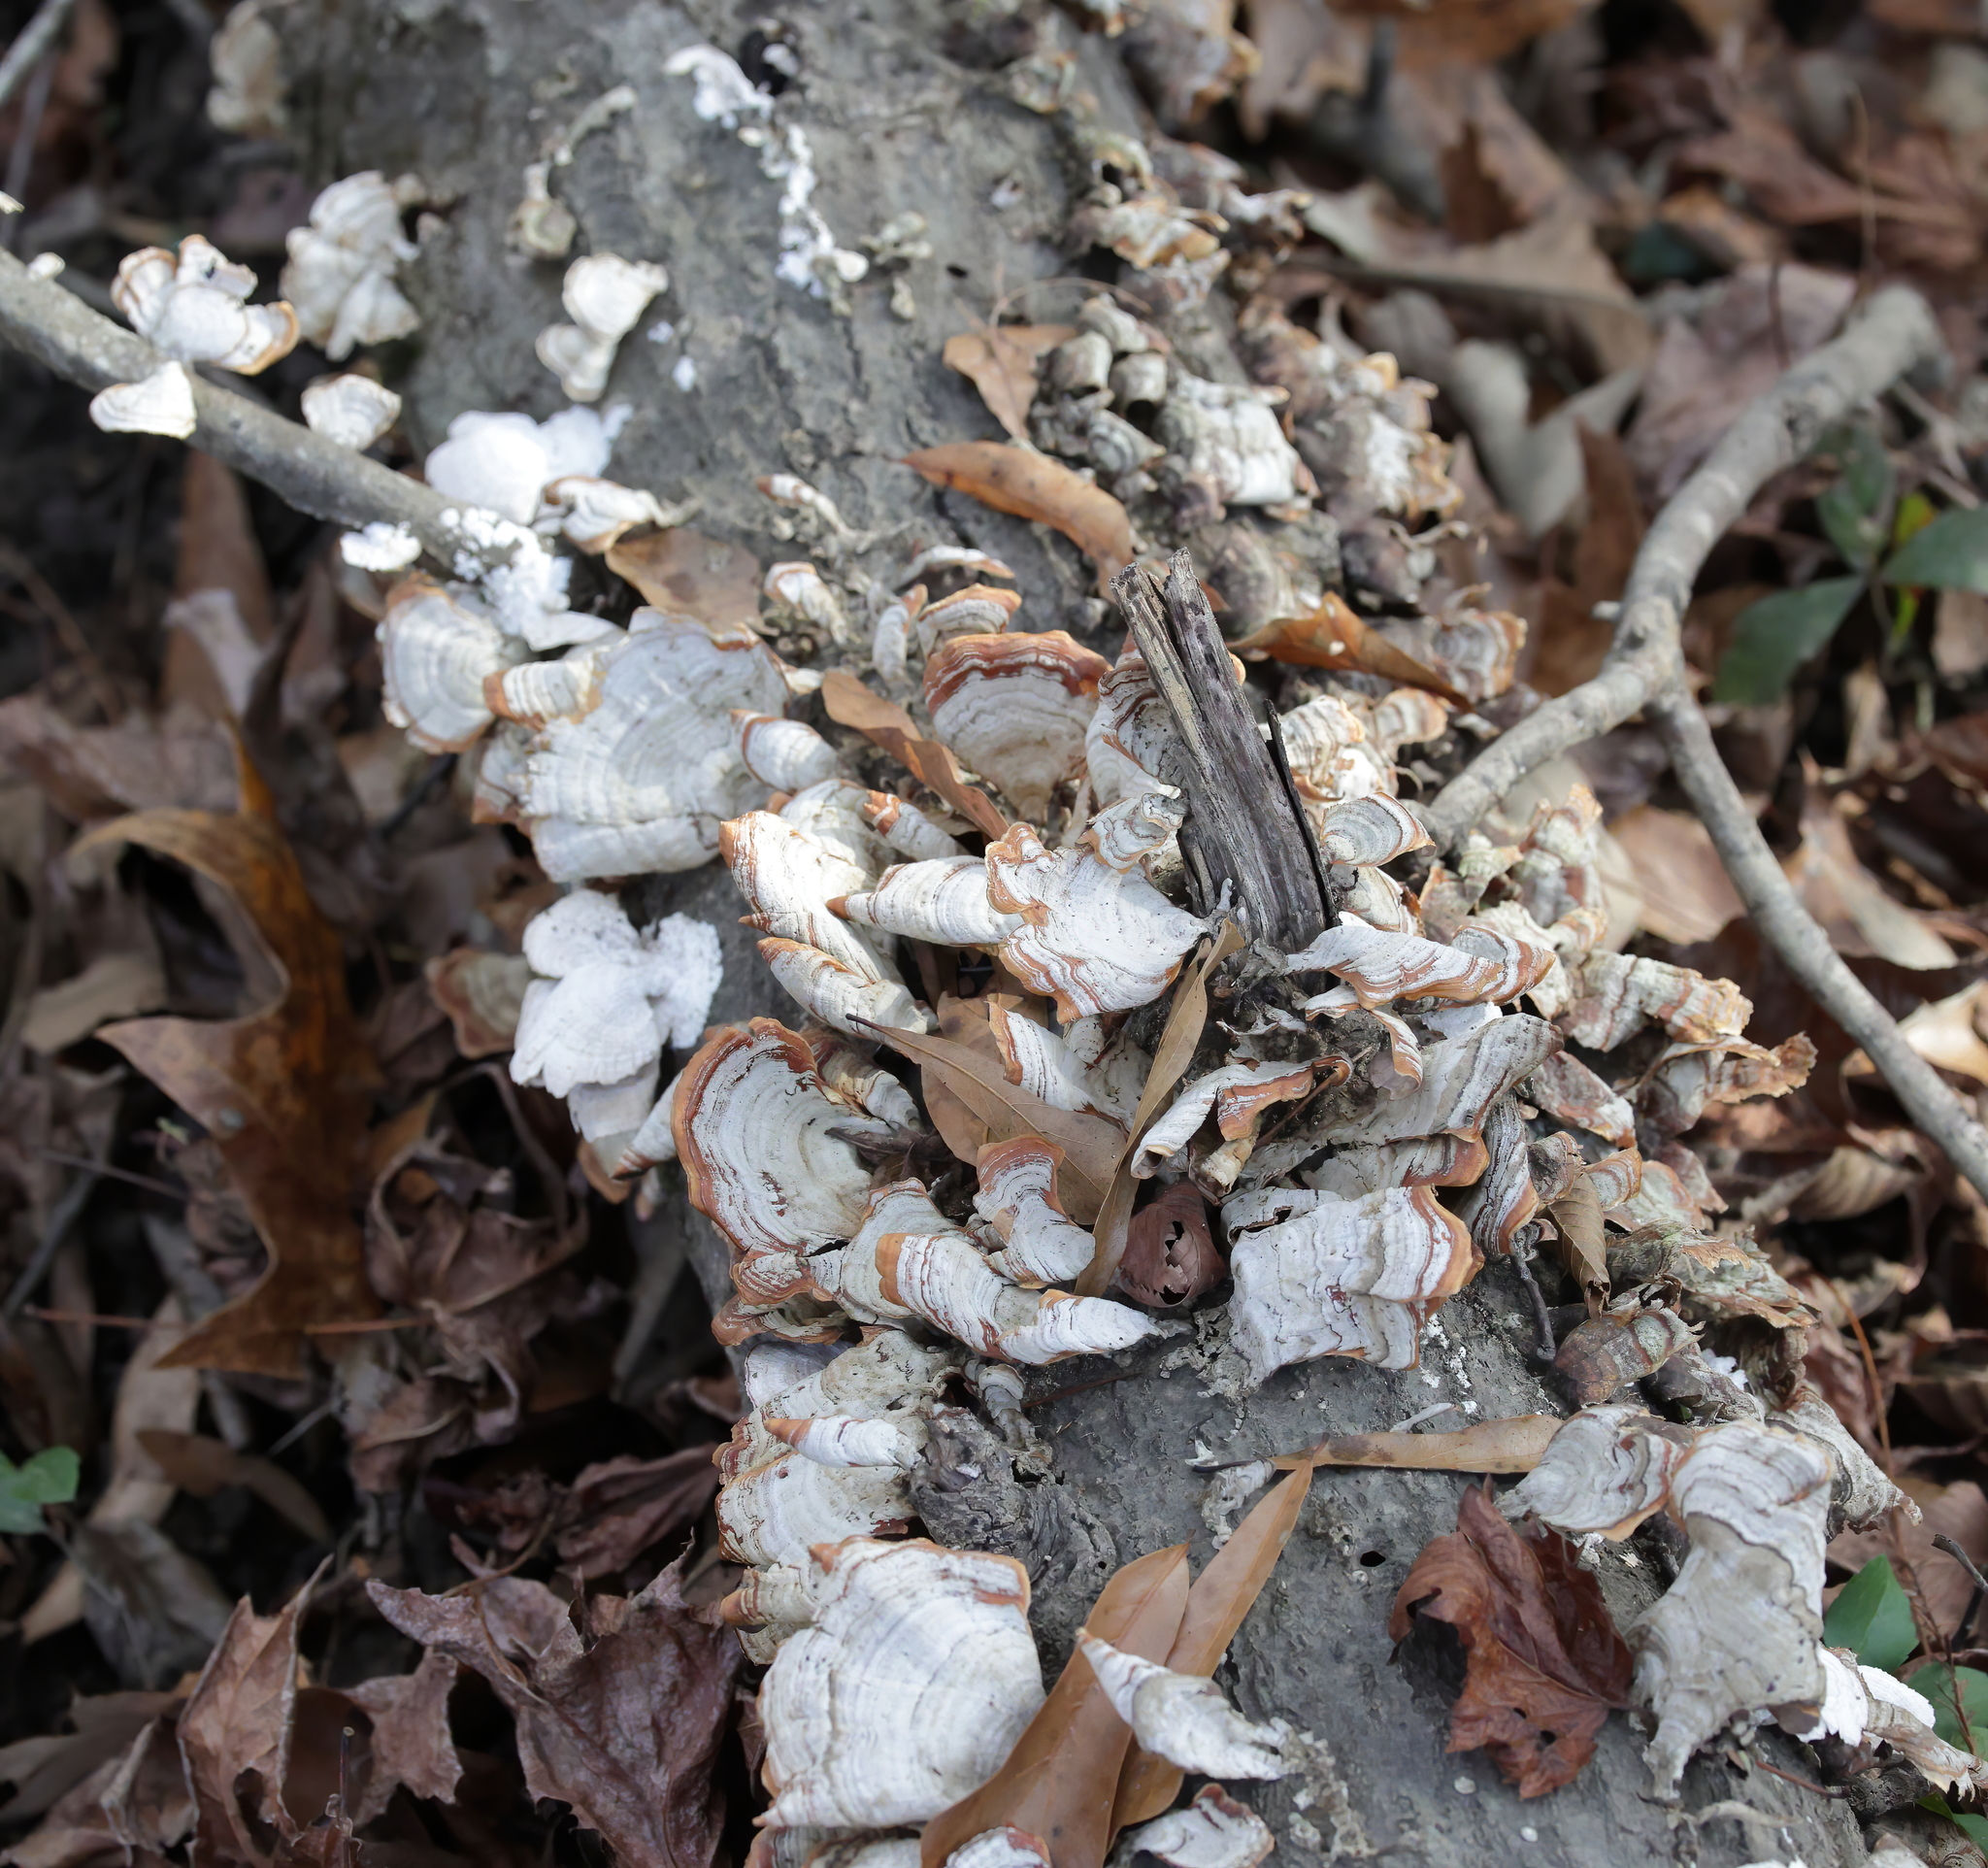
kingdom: Fungi
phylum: Basidiomycota
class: Agaricomycetes
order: Russulales
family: Stereaceae
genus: Stereum
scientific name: Stereum lobatum
